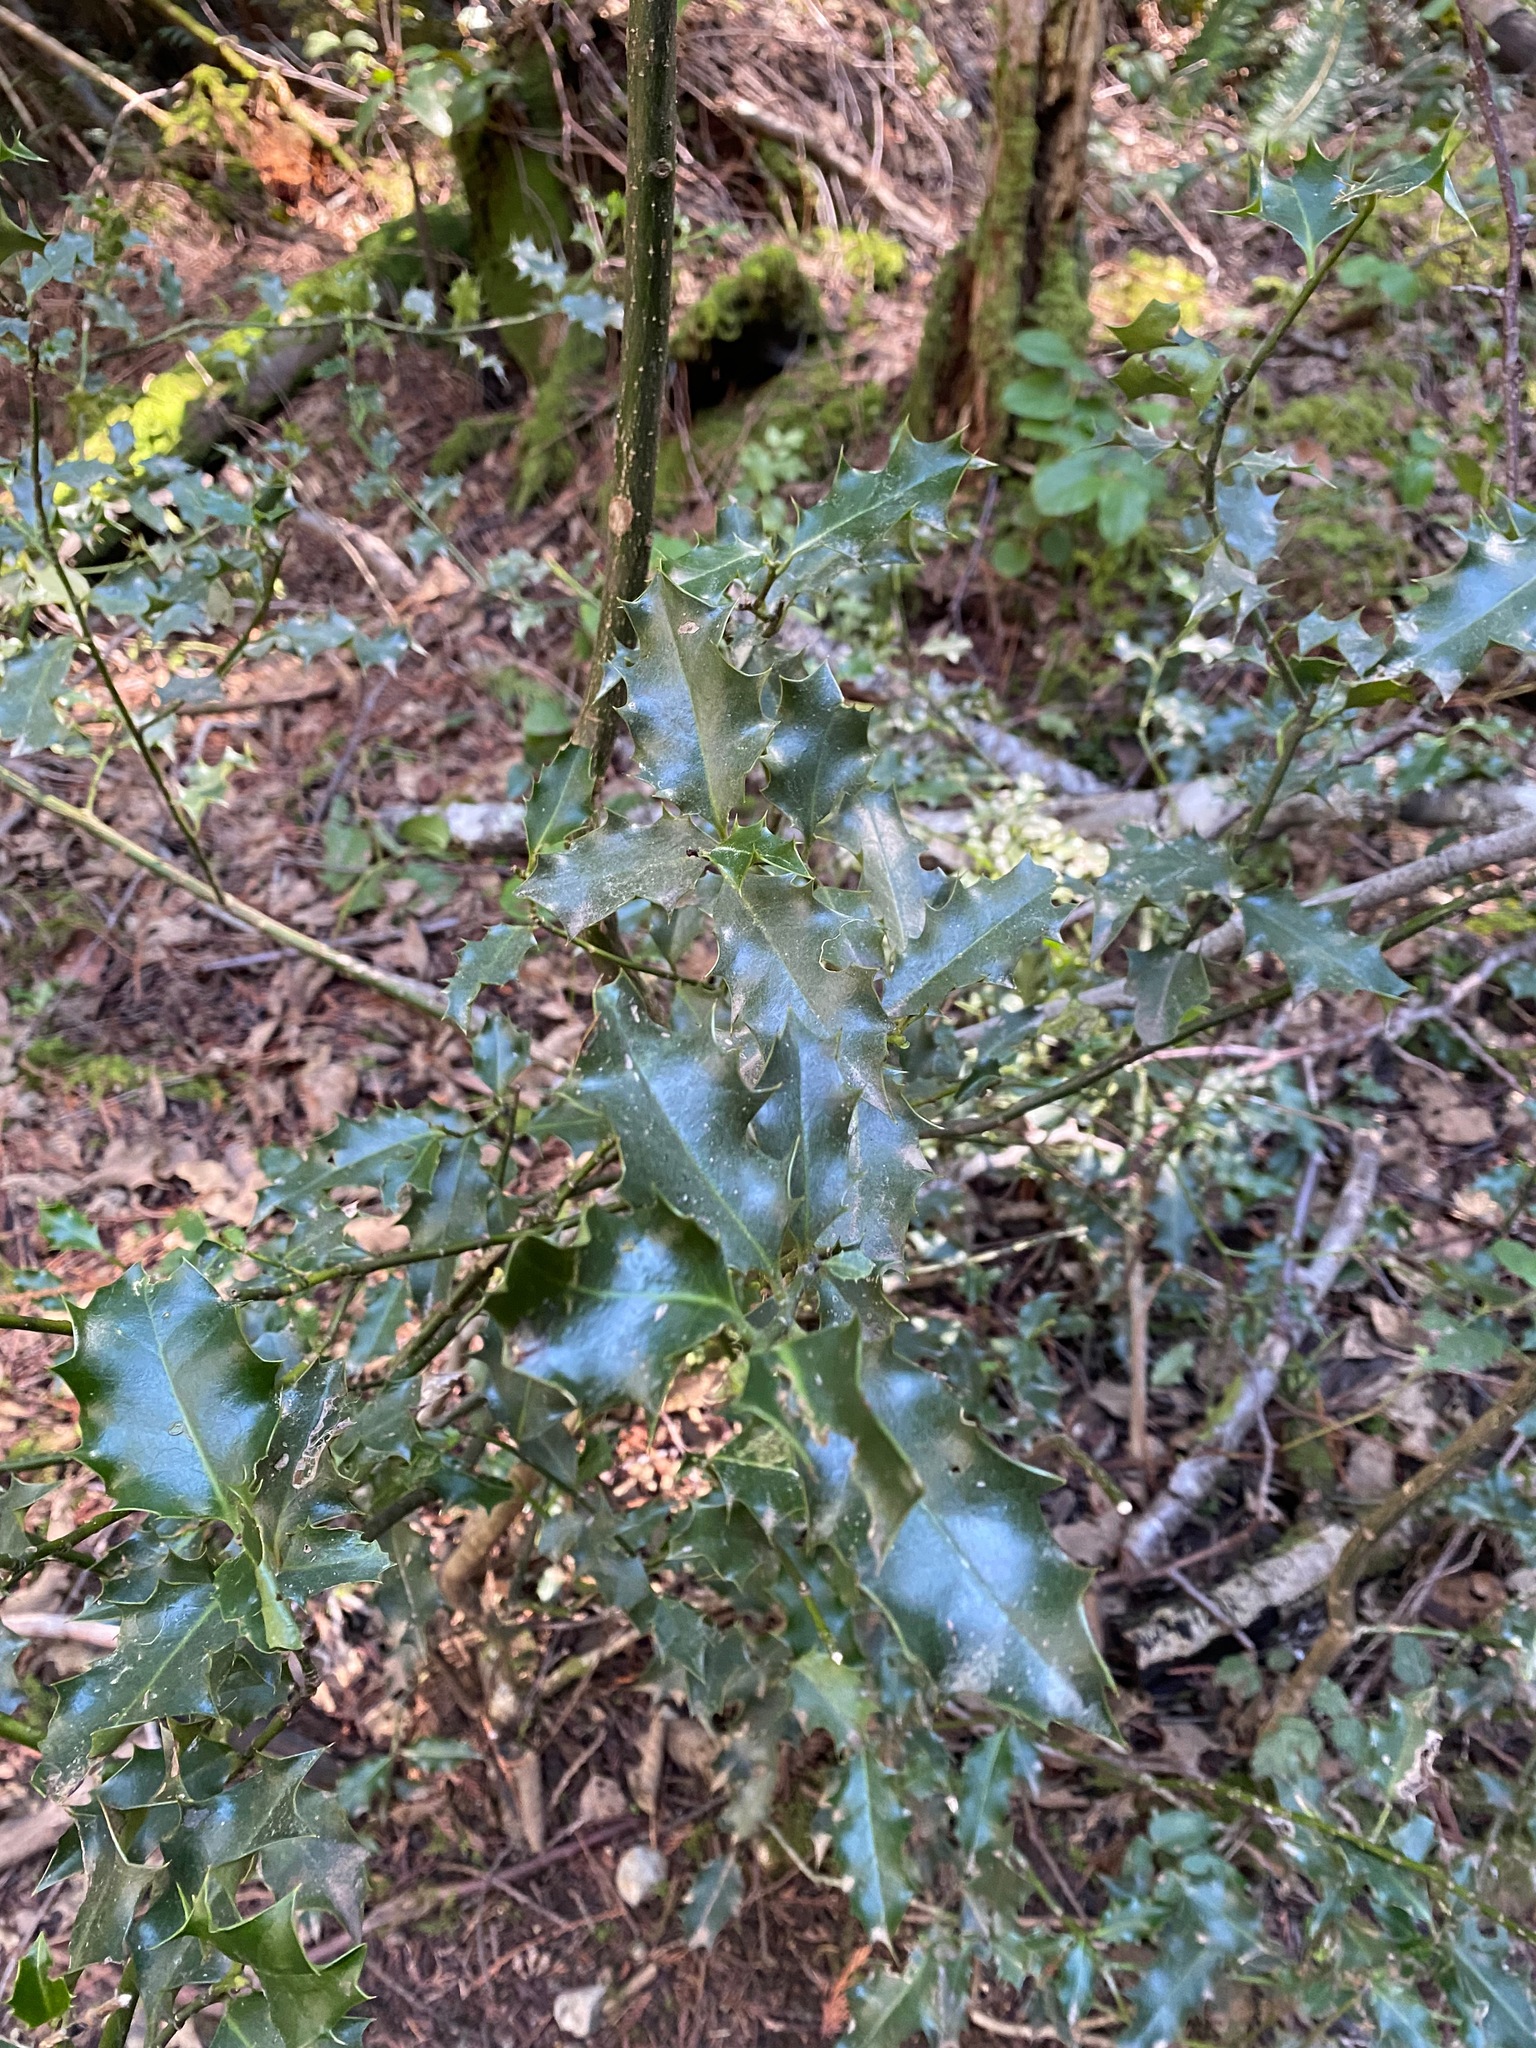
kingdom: Plantae
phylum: Tracheophyta
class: Magnoliopsida
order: Aquifoliales
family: Aquifoliaceae
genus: Ilex
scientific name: Ilex aquifolium
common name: English holly
